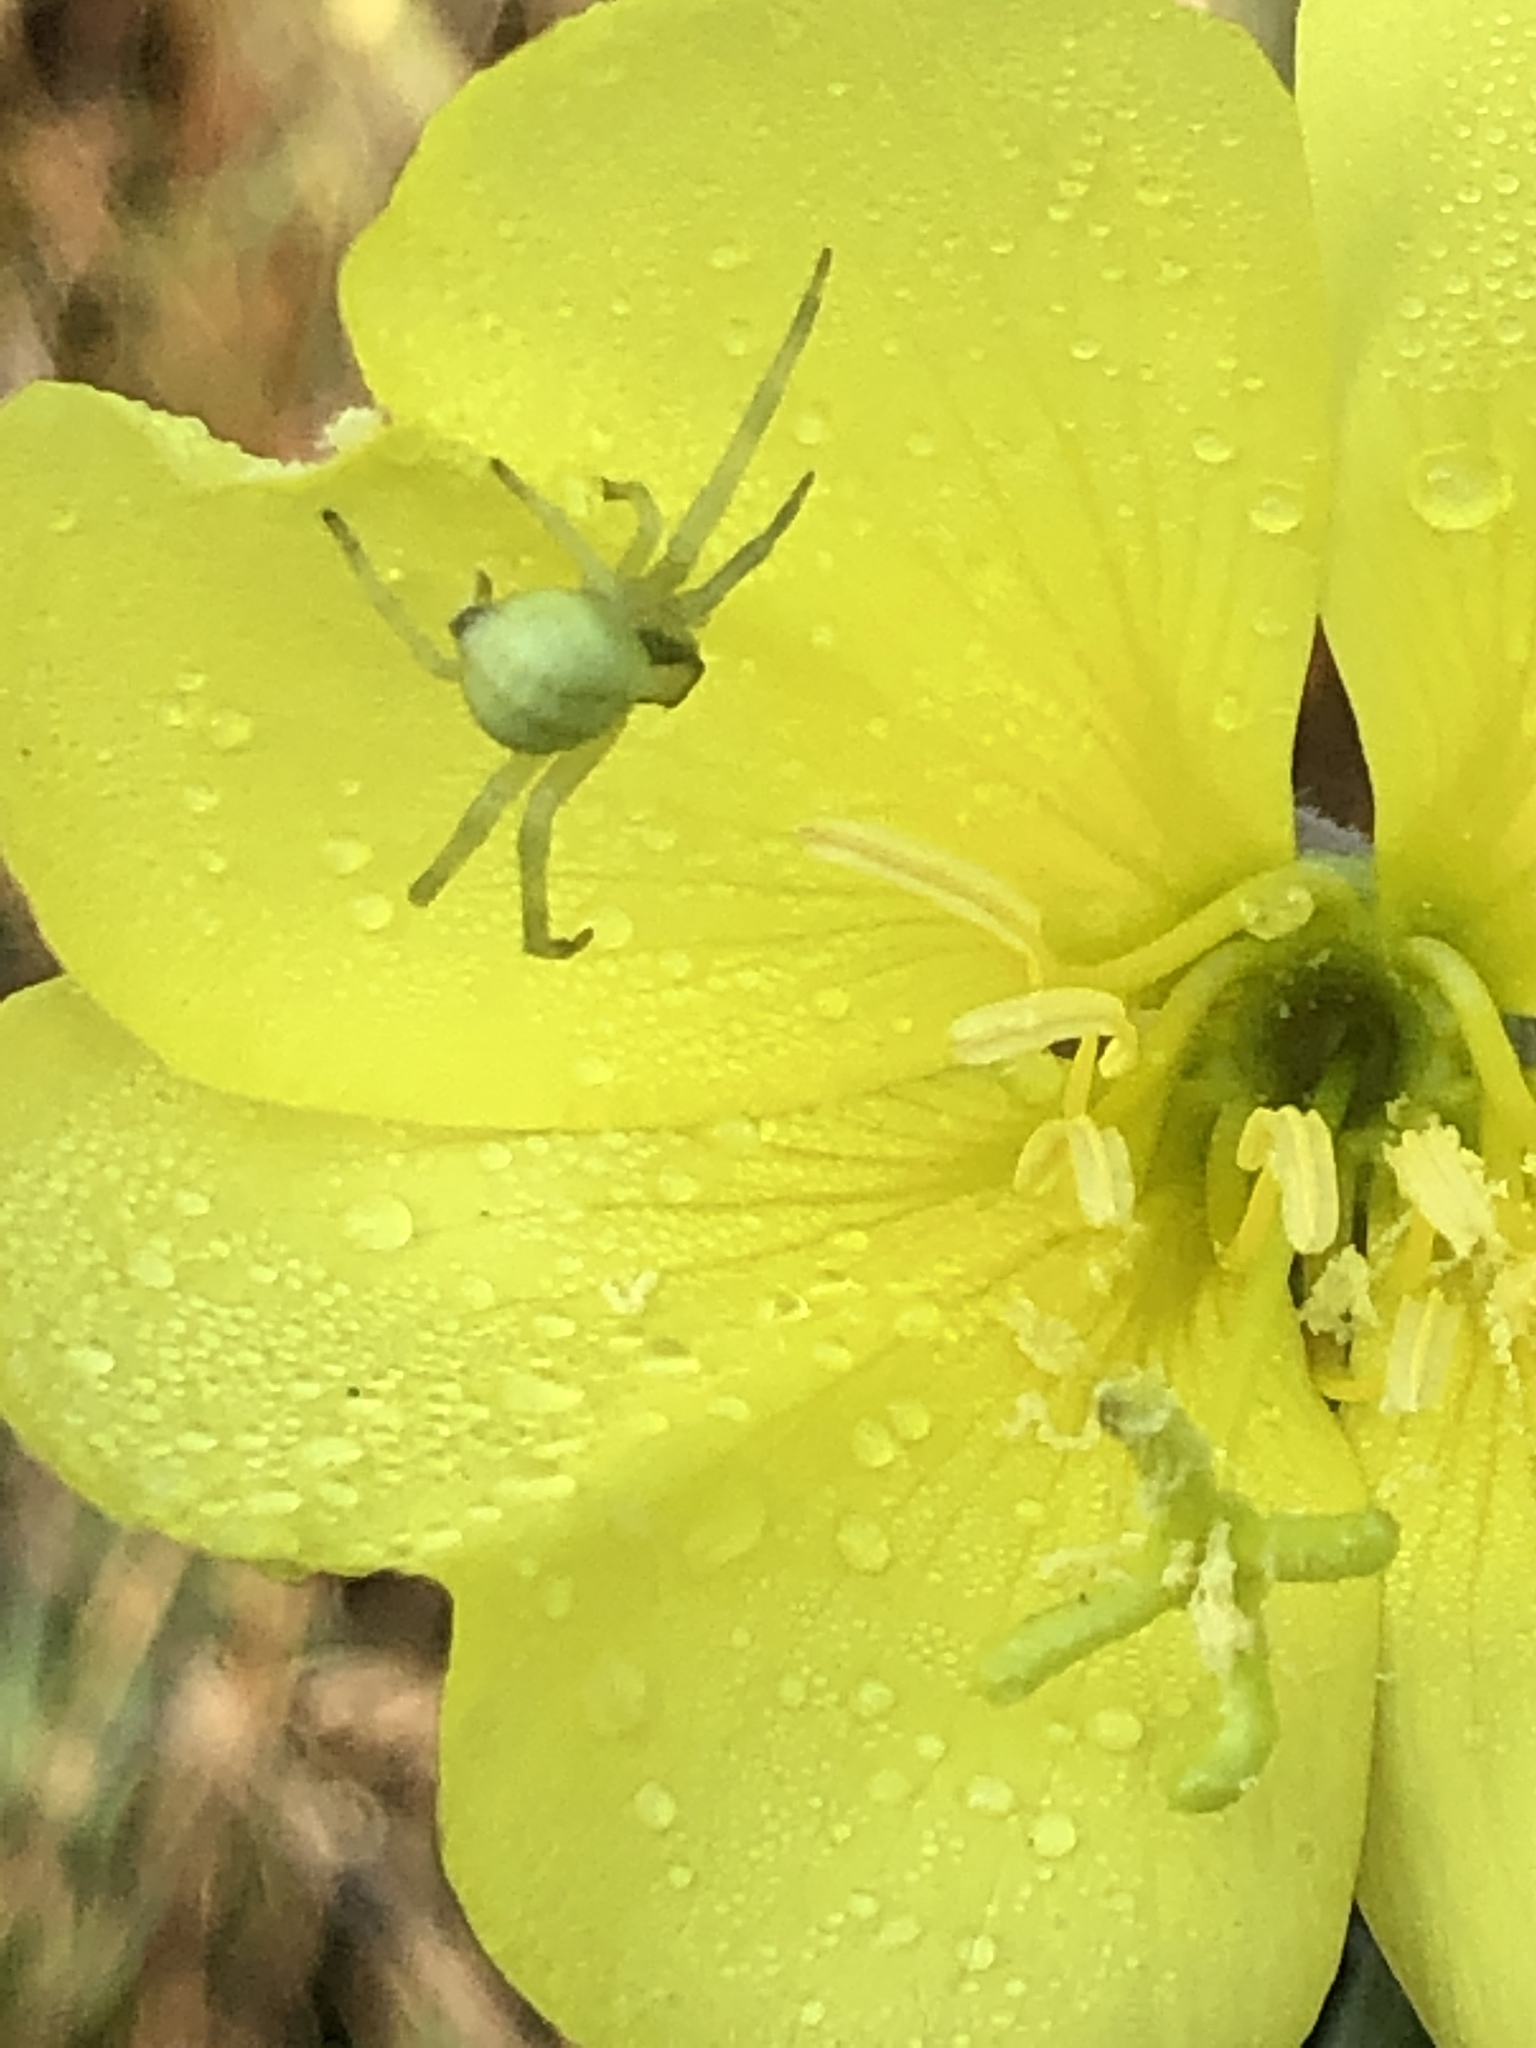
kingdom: Animalia
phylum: Arthropoda
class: Arachnida
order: Araneae
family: Thomisidae
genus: Misumena
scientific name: Misumena vatia
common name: Goldenrod crab spider
